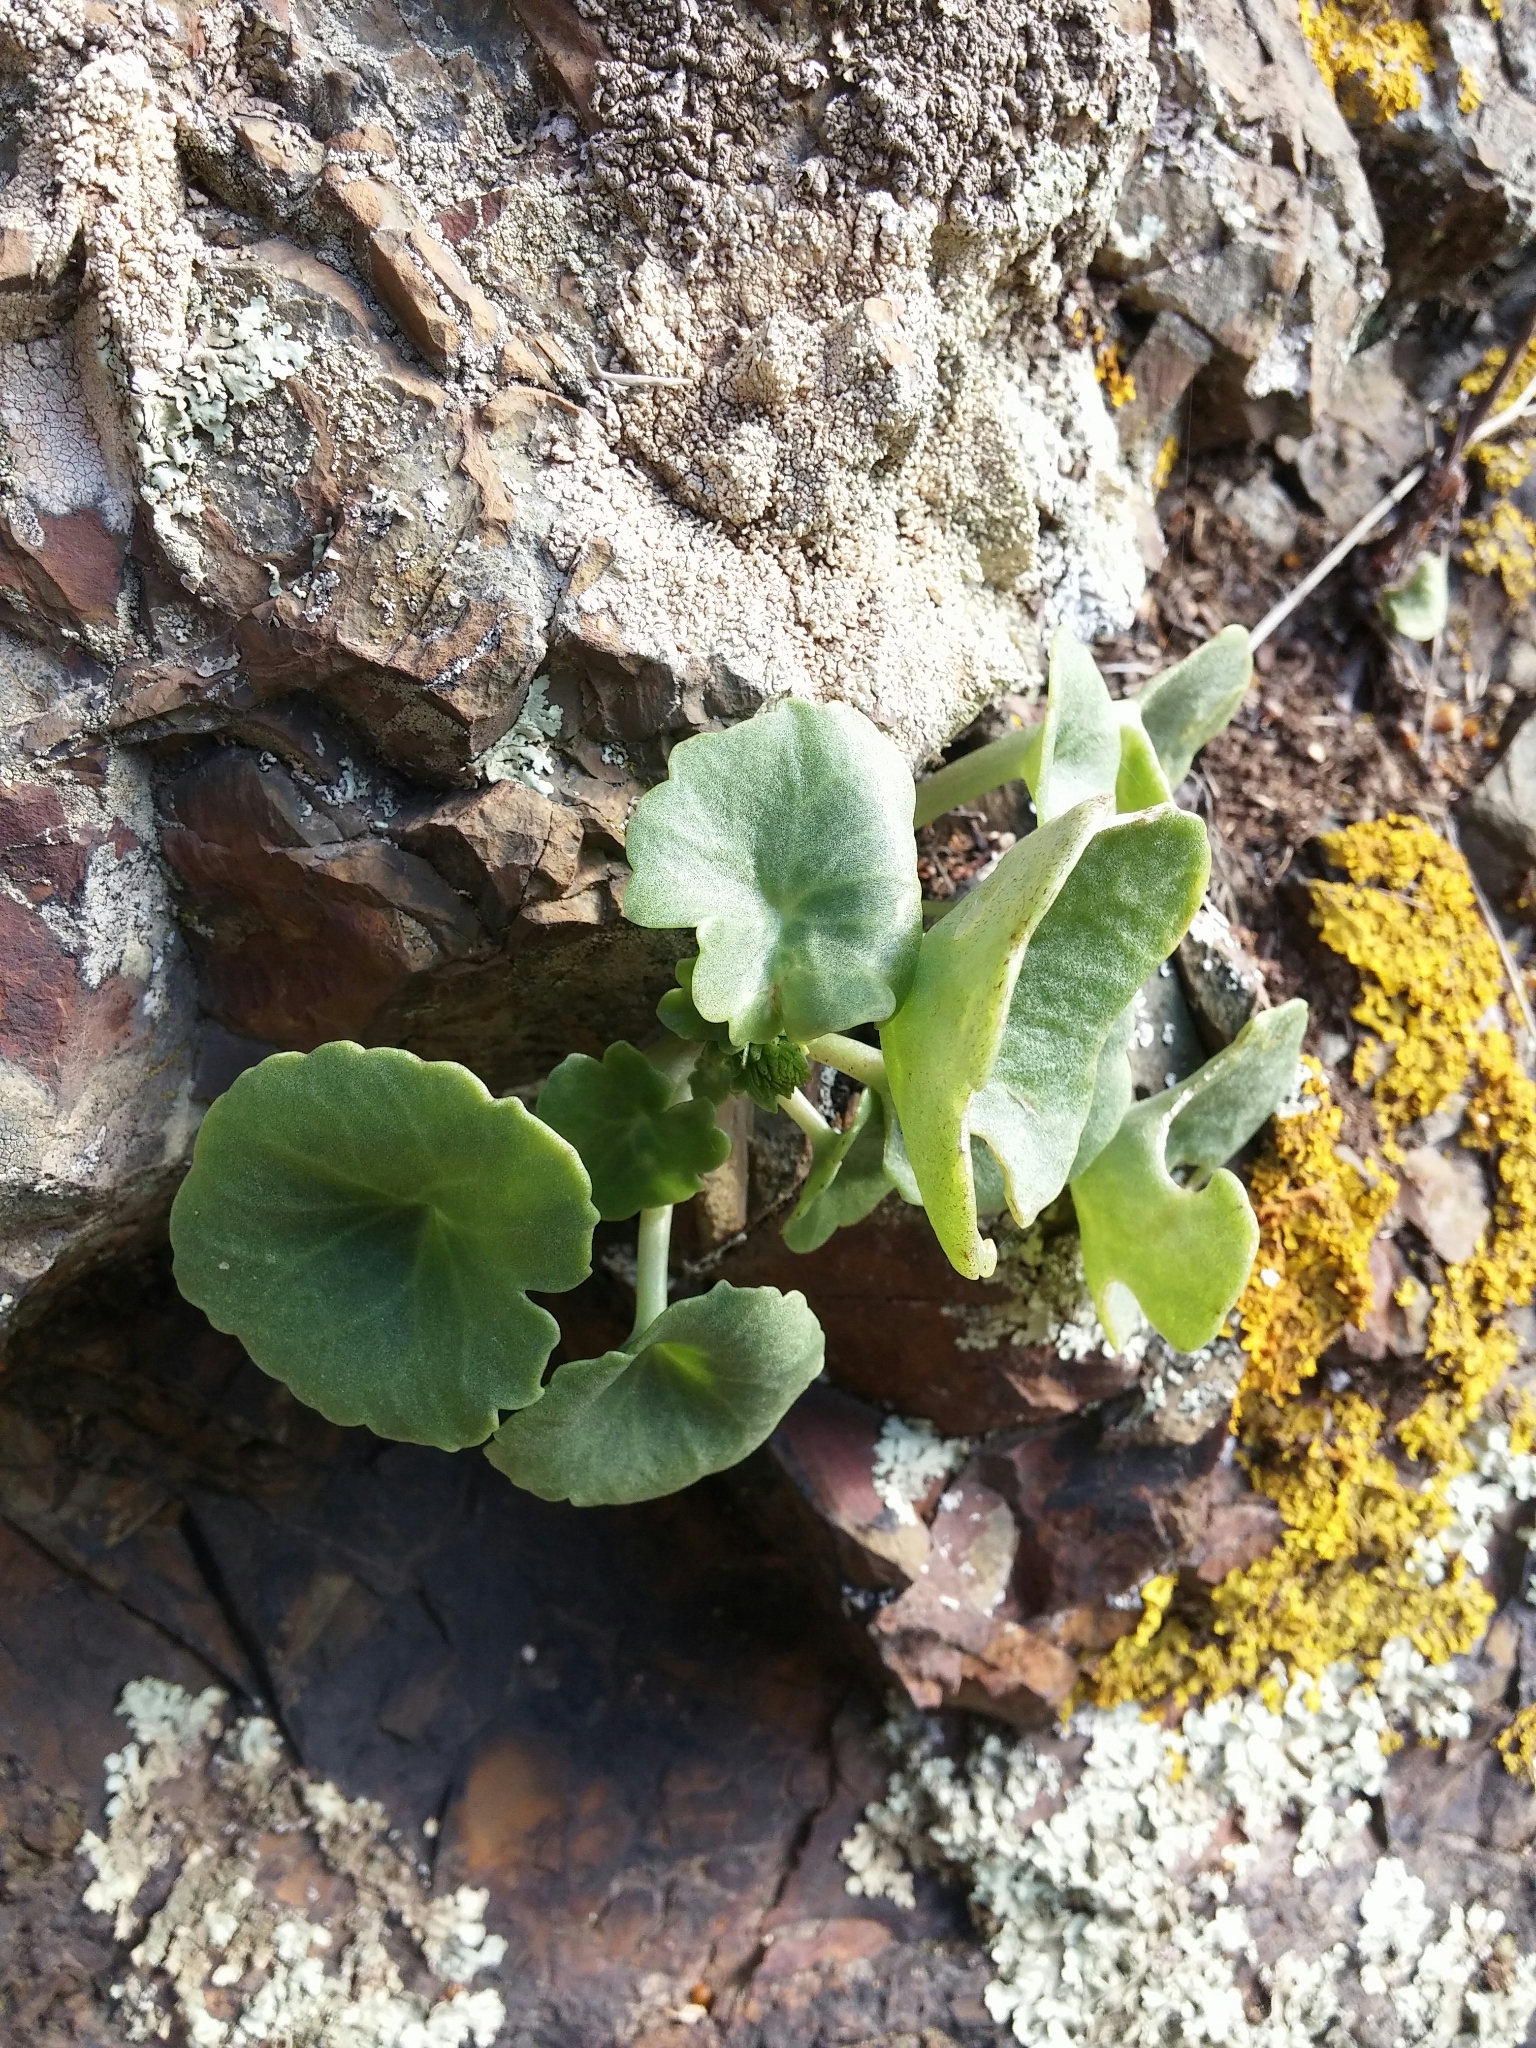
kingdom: Plantae
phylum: Tracheophyta
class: Magnoliopsida
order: Saxifragales
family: Crassulaceae
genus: Umbilicus
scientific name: Umbilicus rupestris
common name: Navelwort
